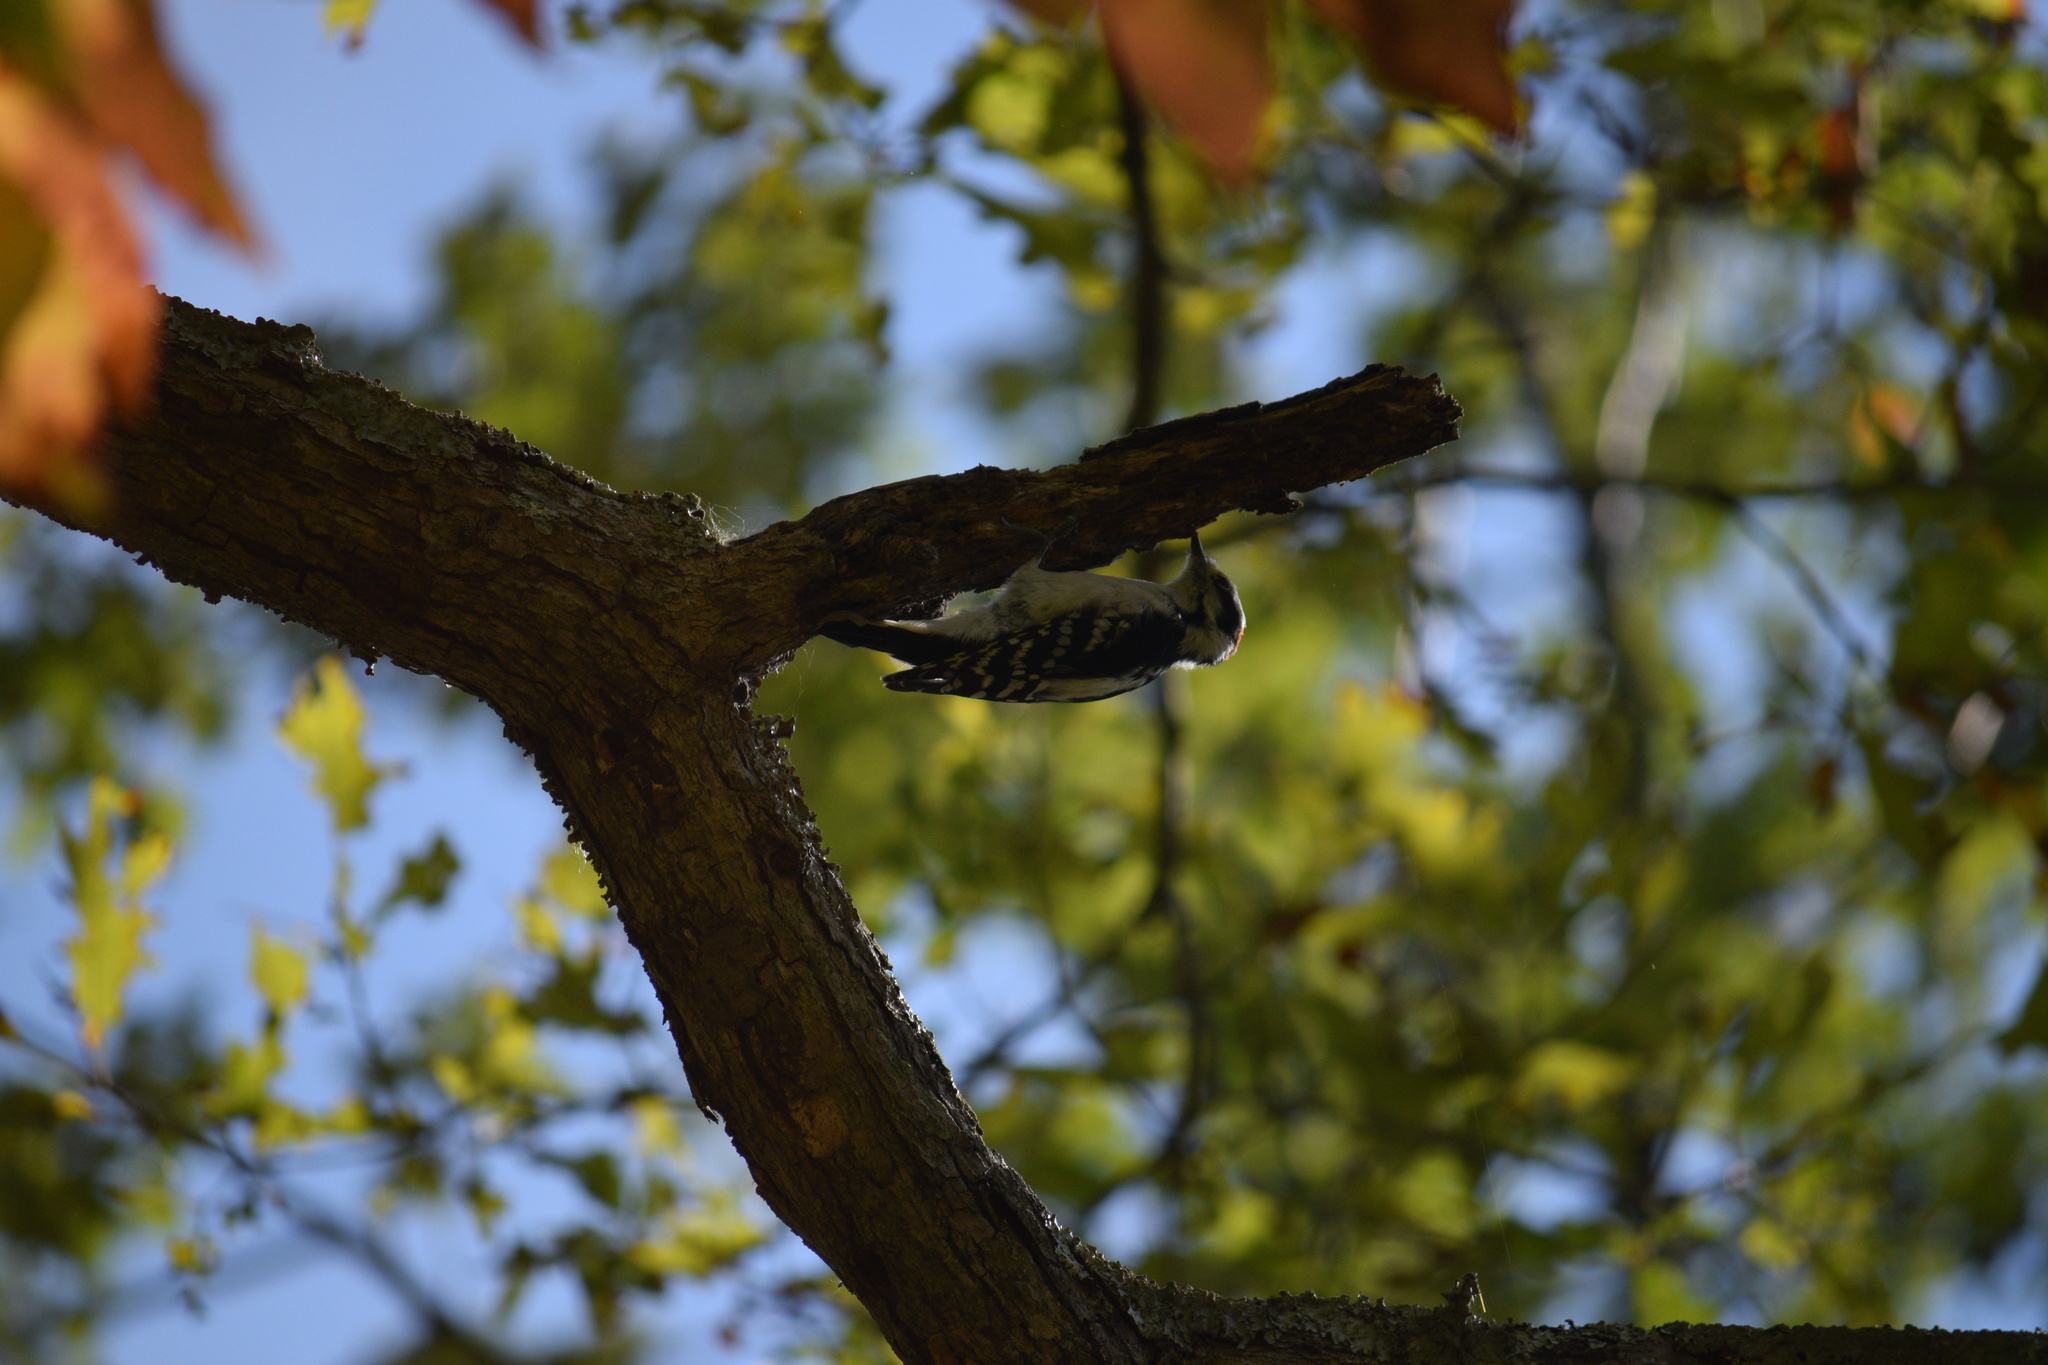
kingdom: Animalia
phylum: Chordata
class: Aves
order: Piciformes
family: Picidae
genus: Dryobates
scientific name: Dryobates pubescens
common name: Downy woodpecker
